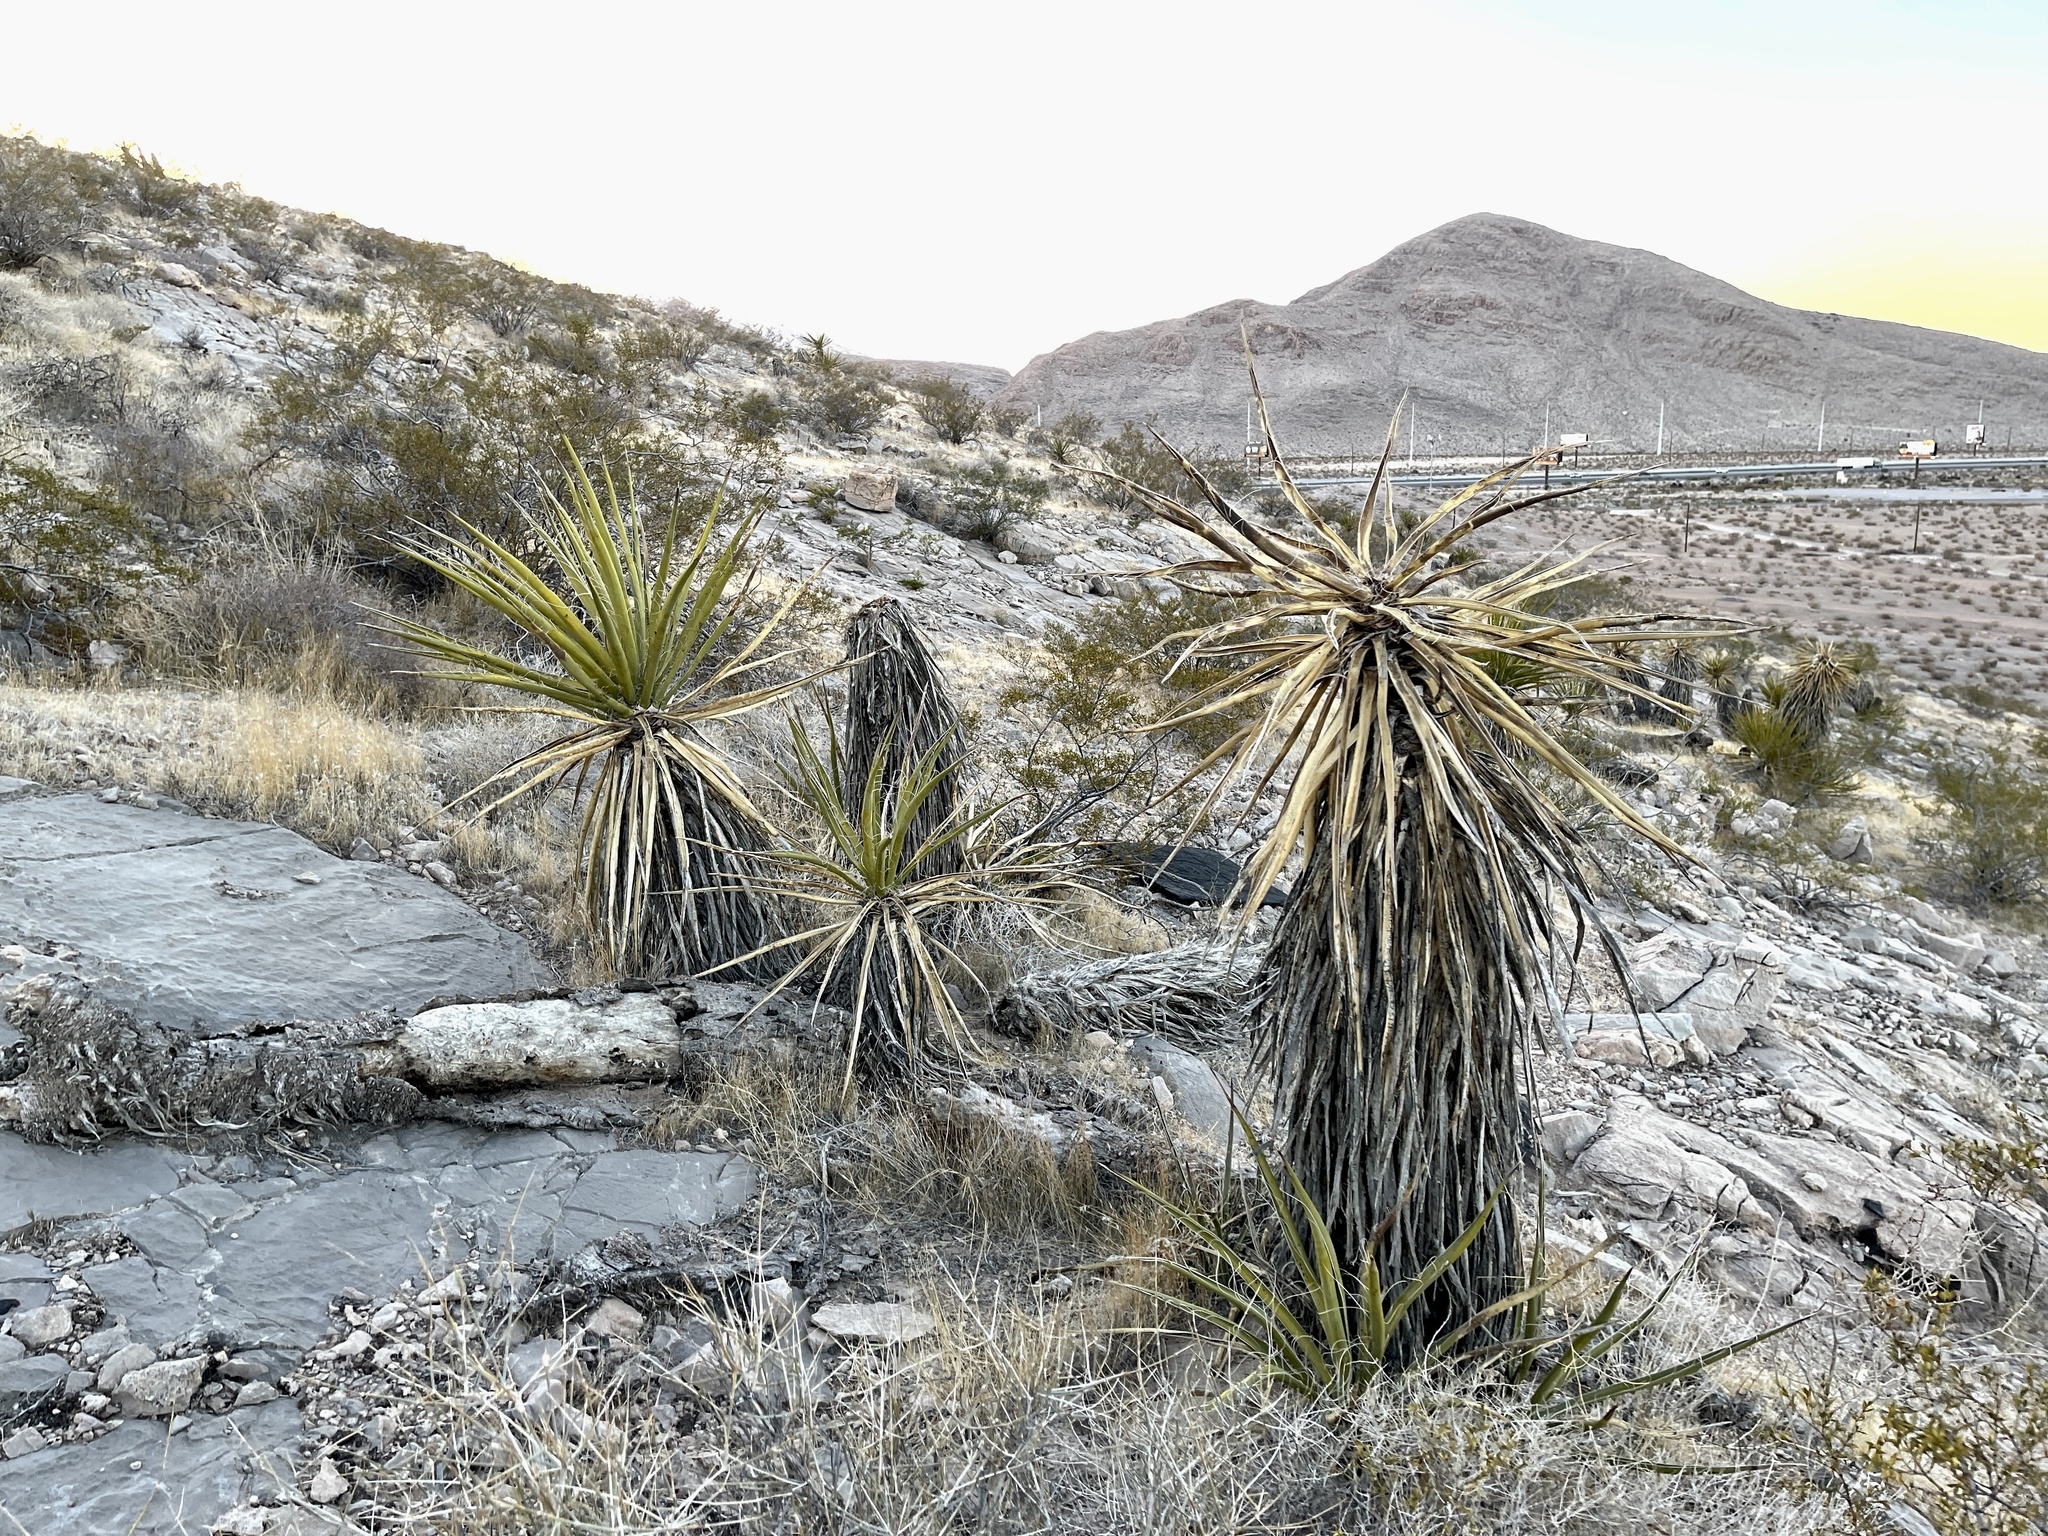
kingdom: Plantae
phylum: Tracheophyta
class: Liliopsida
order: Asparagales
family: Asparagaceae
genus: Yucca
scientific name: Yucca schidigera
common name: Mojave yucca
